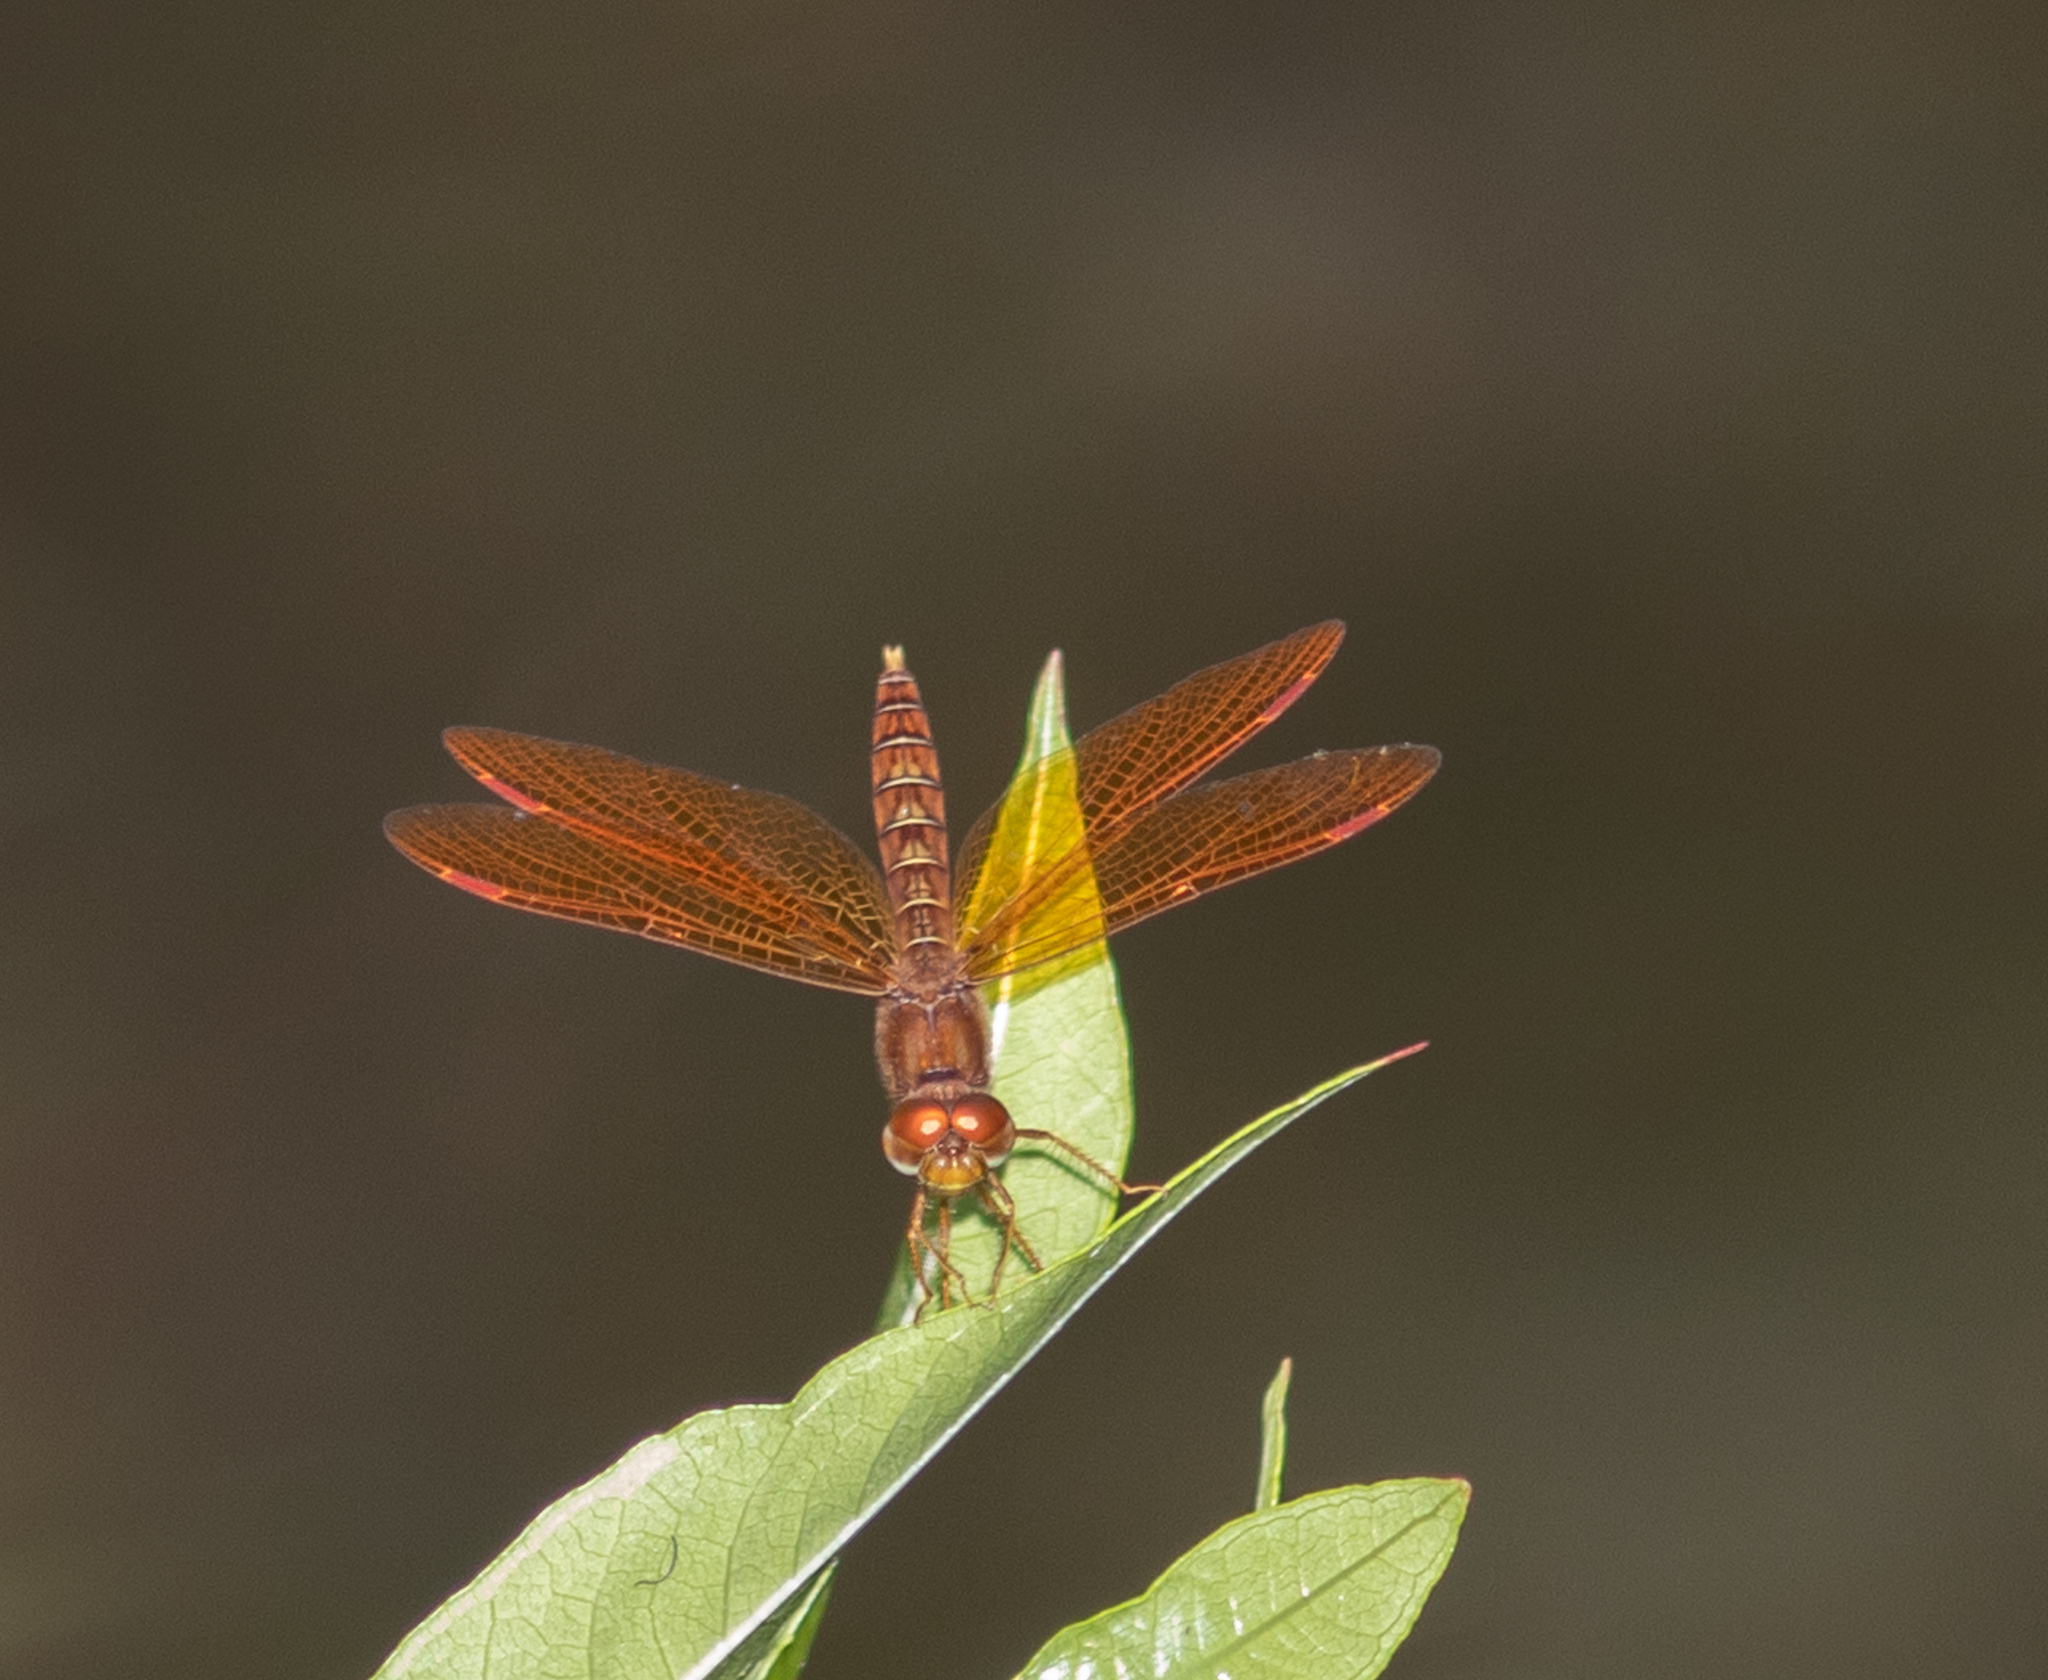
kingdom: Animalia
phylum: Arthropoda
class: Insecta
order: Odonata
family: Libellulidae
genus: Perithemis
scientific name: Perithemis tenera
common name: Eastern amberwing
